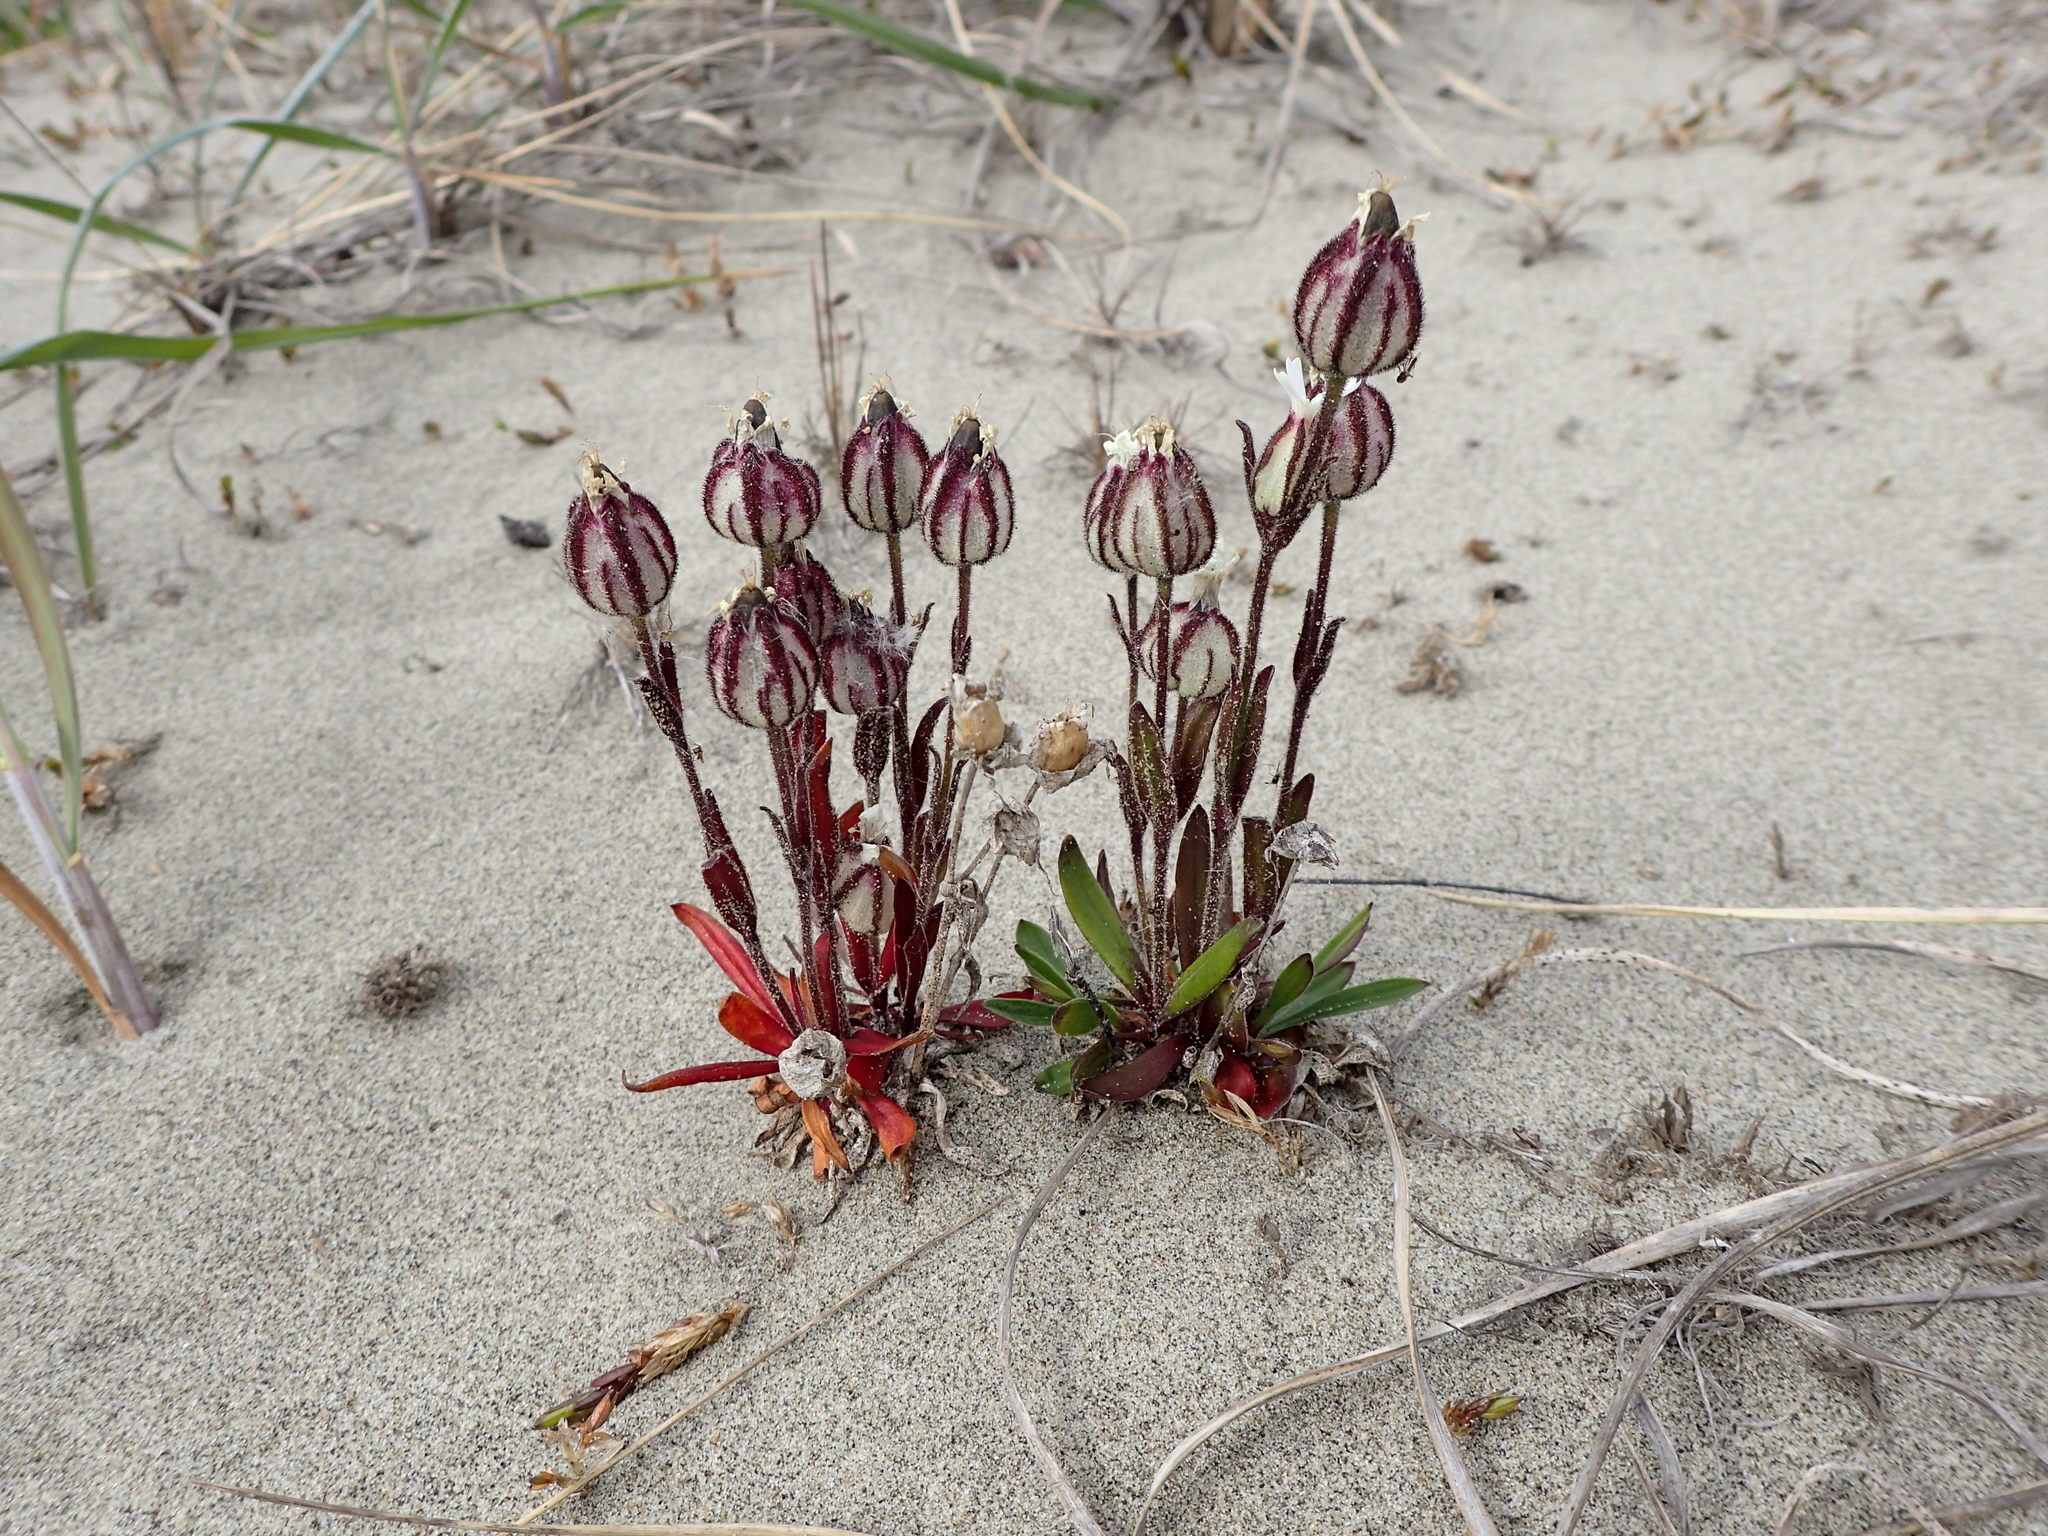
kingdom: Plantae
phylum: Tracheophyta
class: Magnoliopsida
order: Caryophyllales
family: Caryophyllaceae
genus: Silene
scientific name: Silene involucrata
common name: Greater arctic campion
